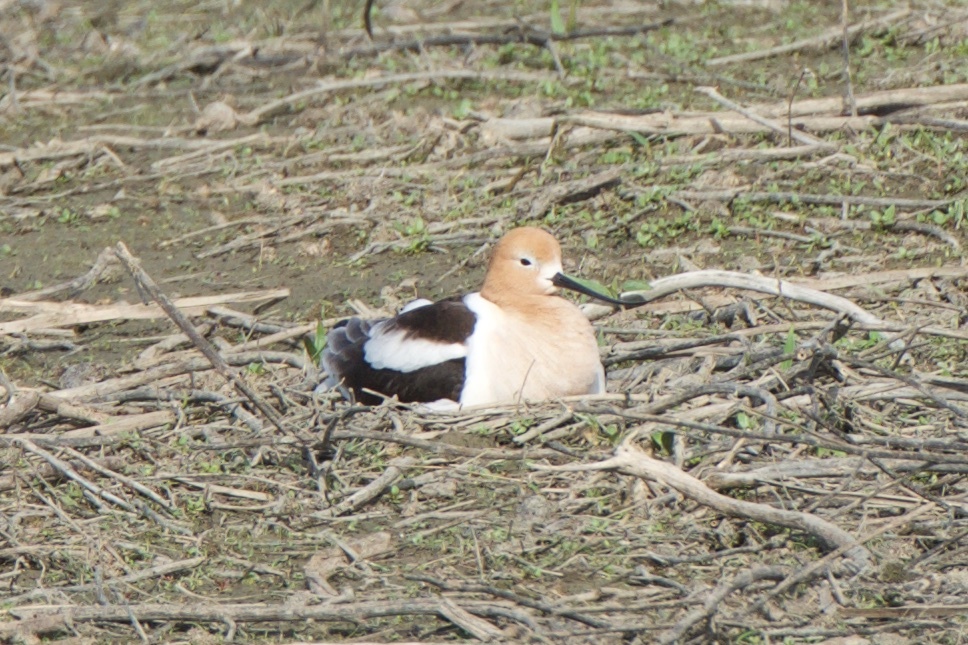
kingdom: Animalia
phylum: Chordata
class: Aves
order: Charadriiformes
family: Recurvirostridae
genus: Recurvirostra
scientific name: Recurvirostra americana
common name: American avocet
